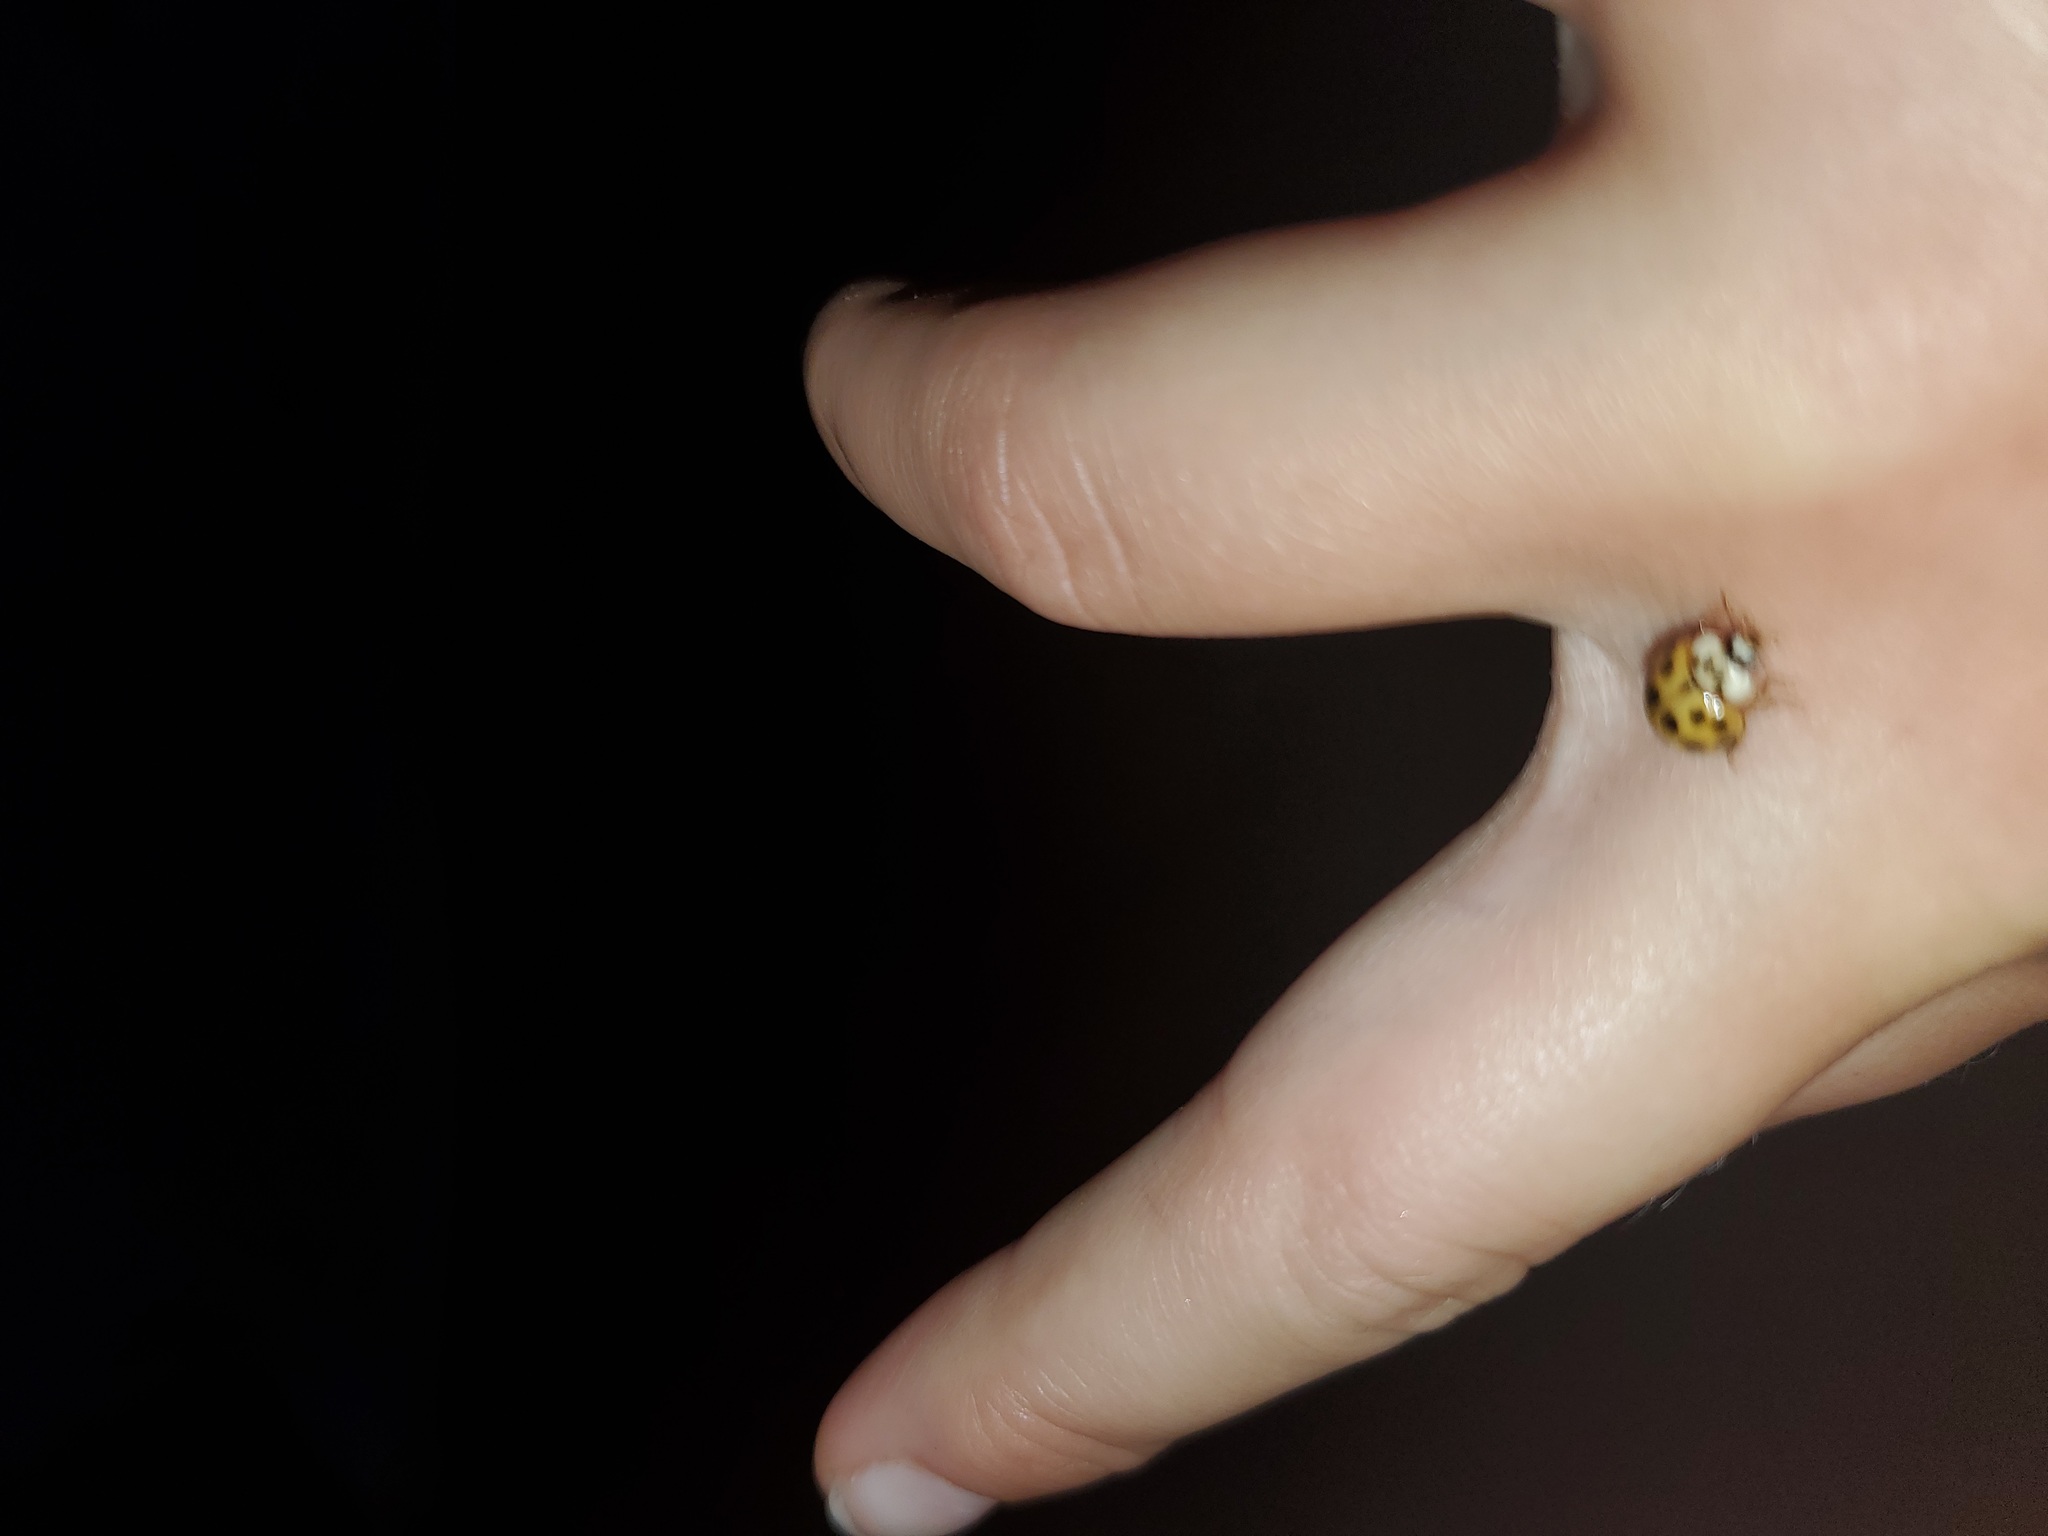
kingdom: Animalia
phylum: Arthropoda
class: Insecta
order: Coleoptera
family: Coccinellidae
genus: Harmonia
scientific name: Harmonia axyridis
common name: Harlequin ladybird
